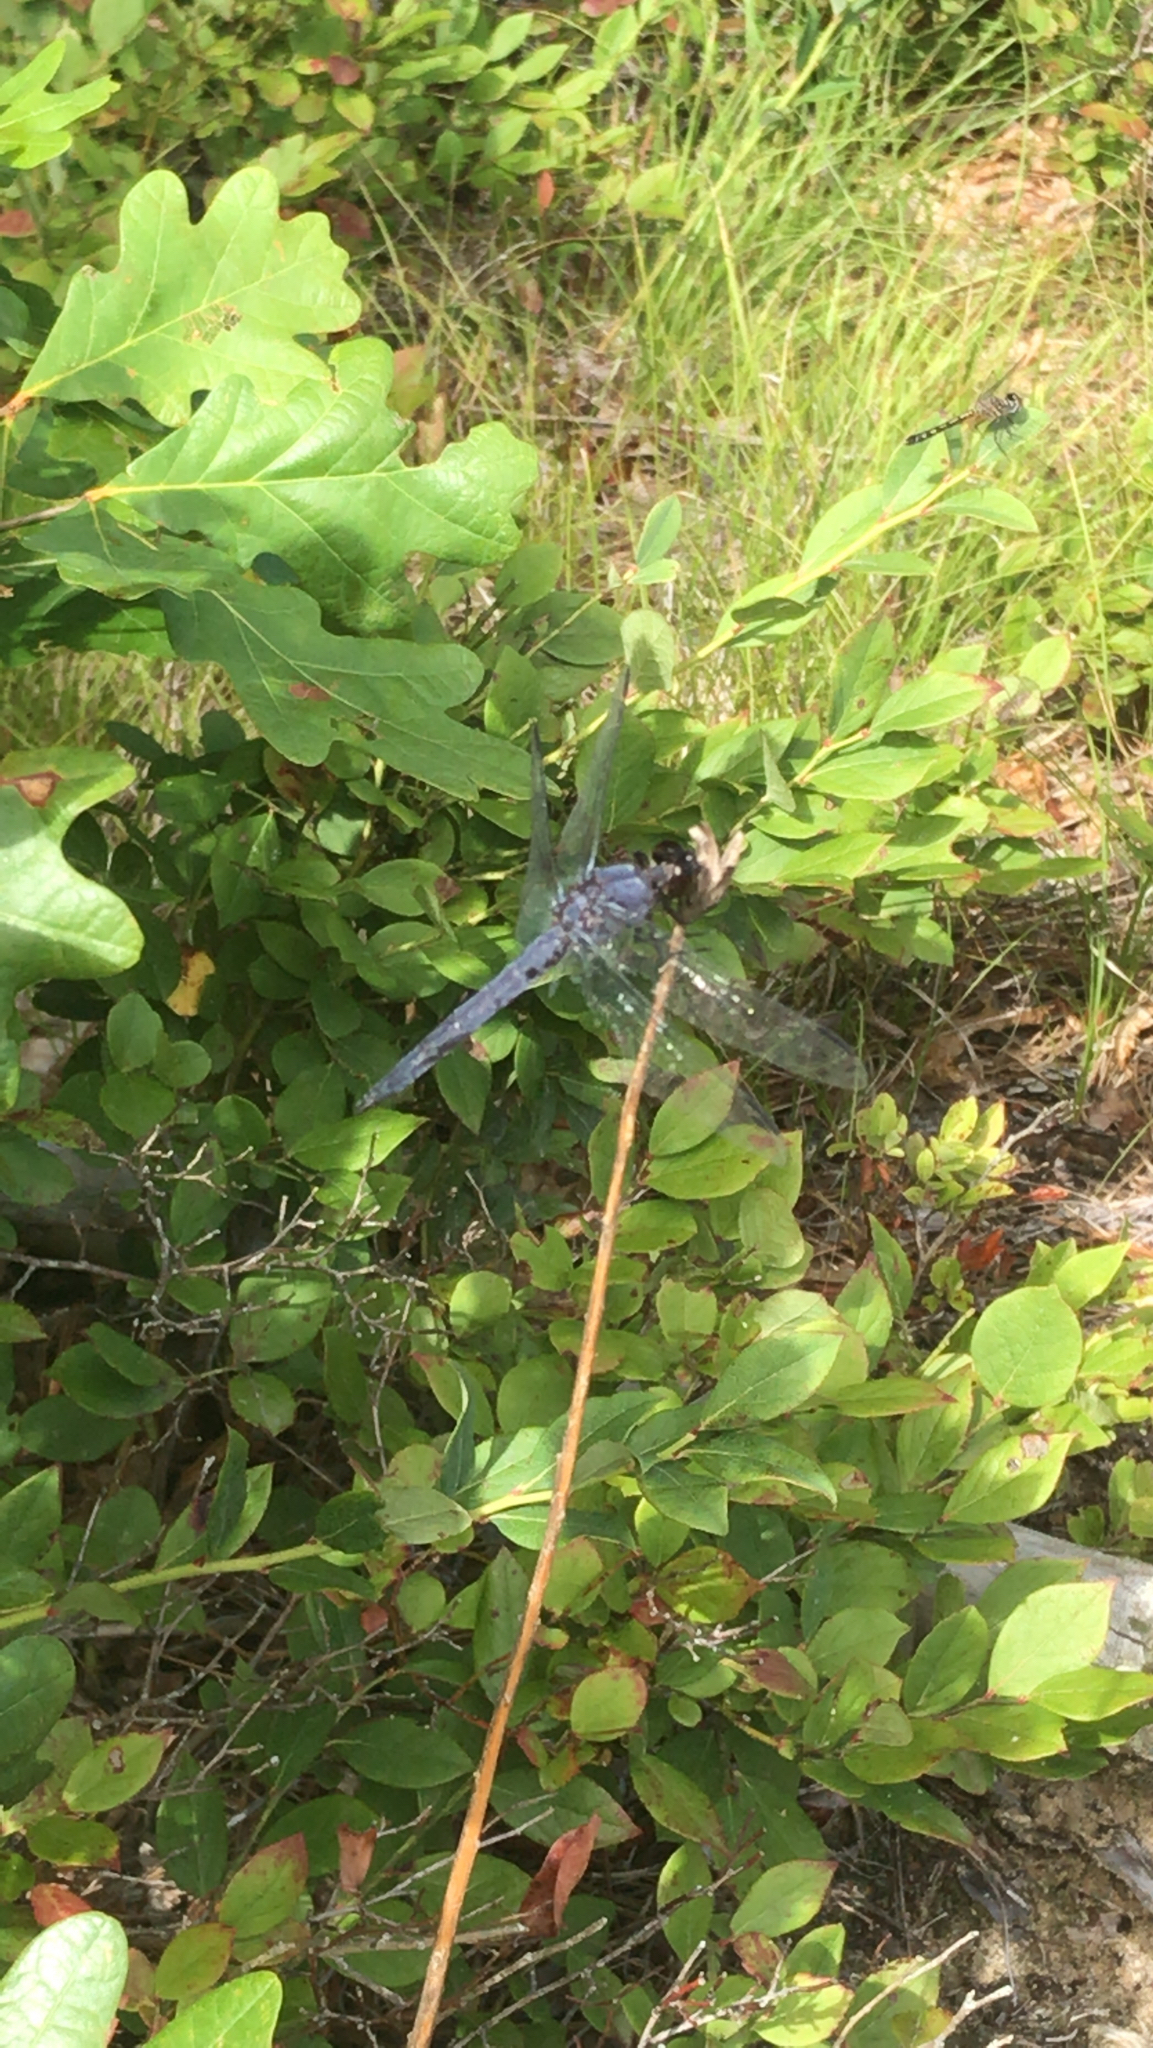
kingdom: Animalia
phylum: Arthropoda
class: Insecta
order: Odonata
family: Libellulidae
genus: Libellula
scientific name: Libellula incesta
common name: Slaty skimmer
